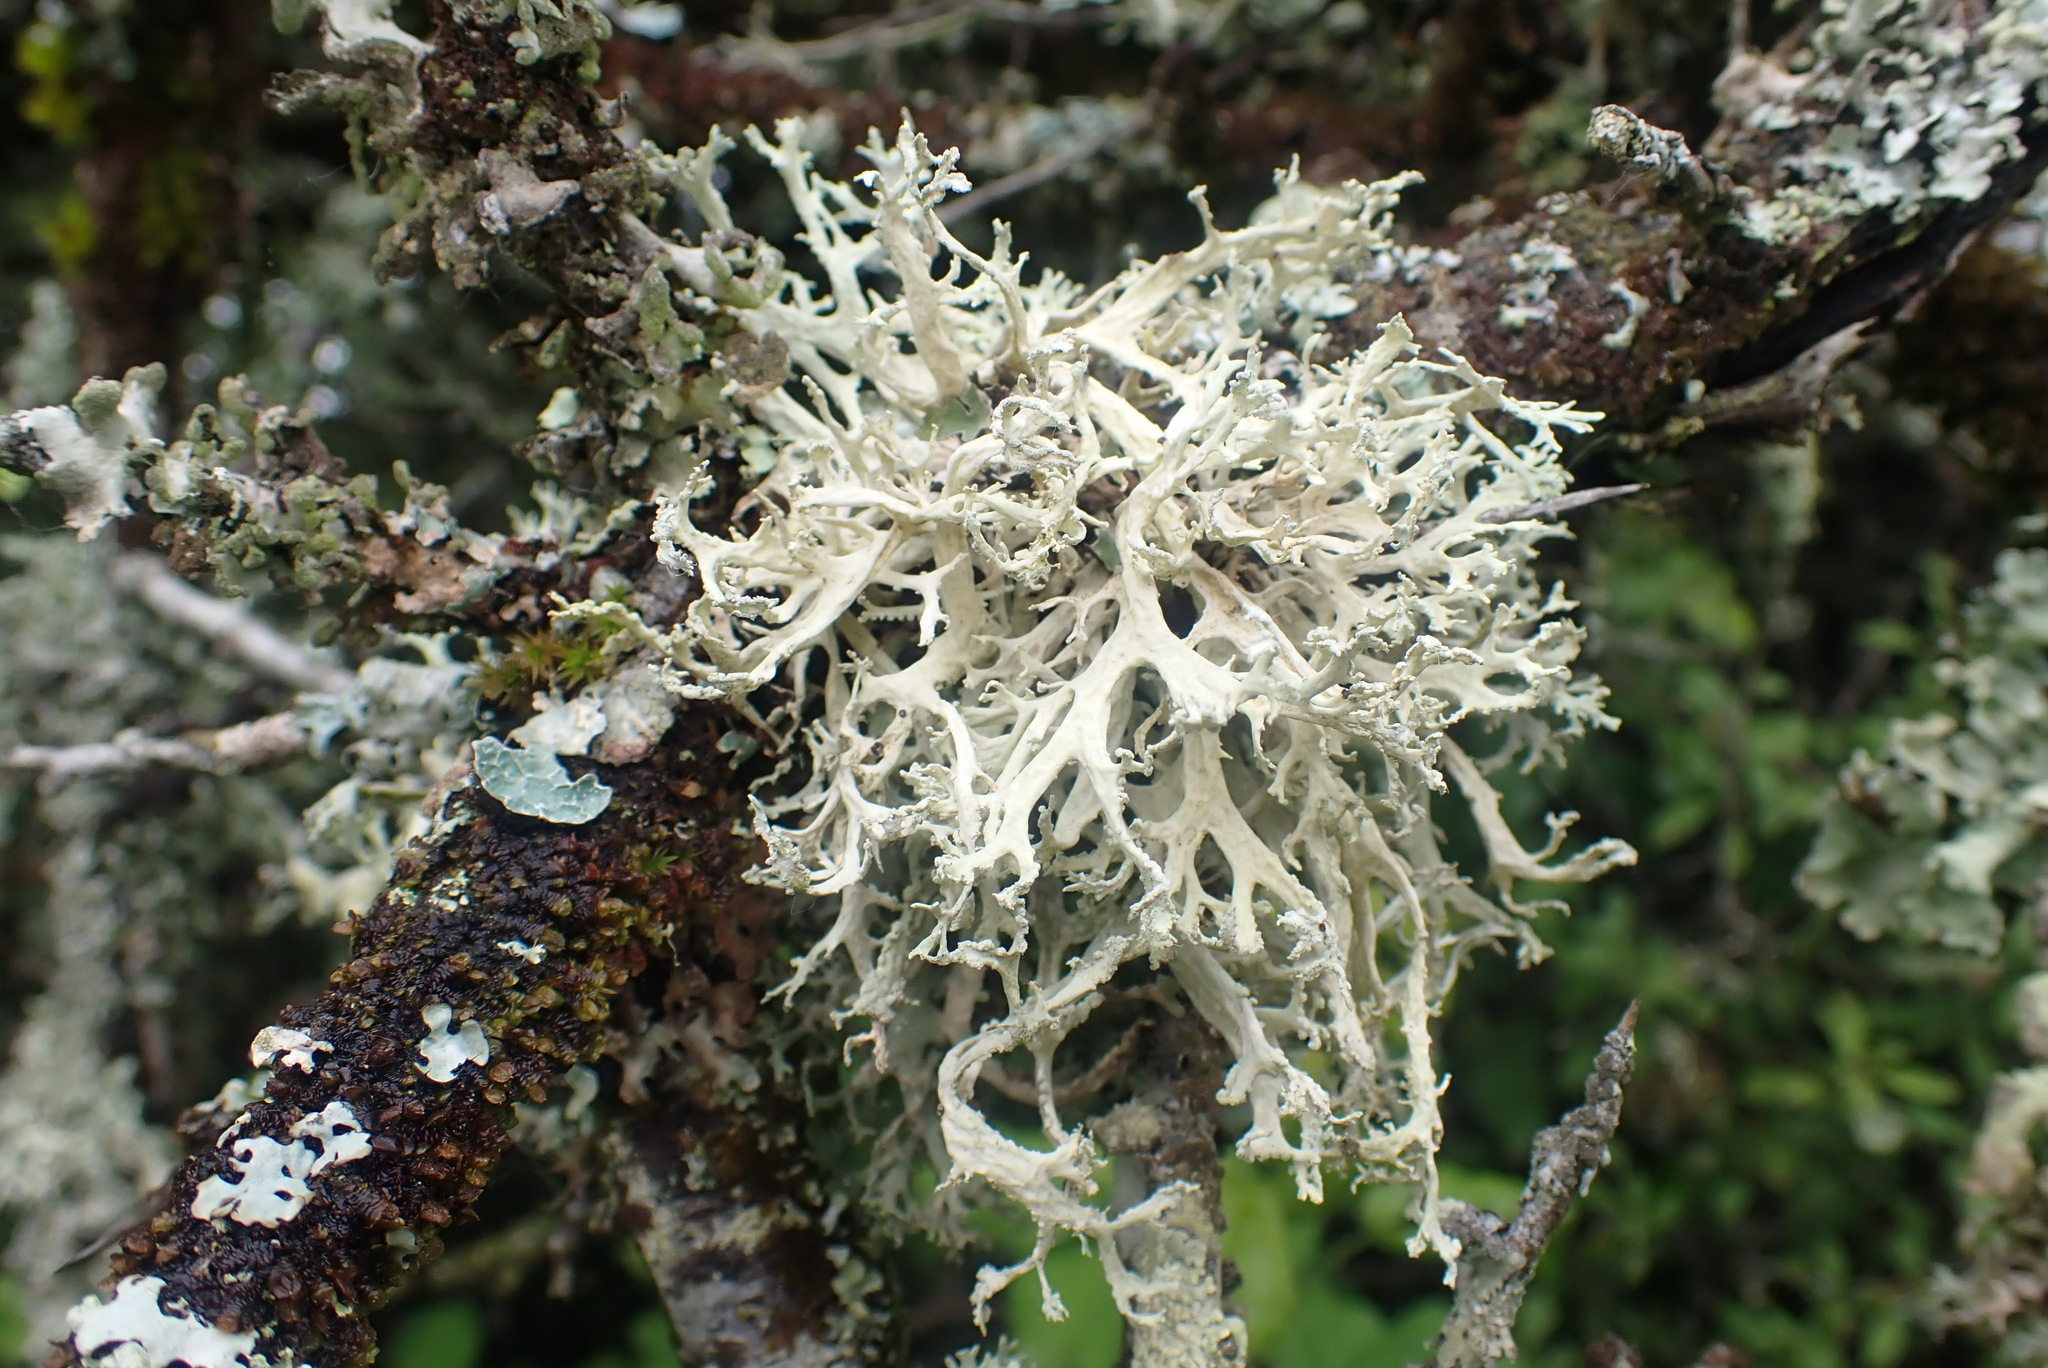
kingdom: Fungi
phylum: Ascomycota
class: Lecanoromycetes
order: Lecanorales
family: Parmeliaceae
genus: Evernia
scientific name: Evernia prunastri
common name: Oak moss
